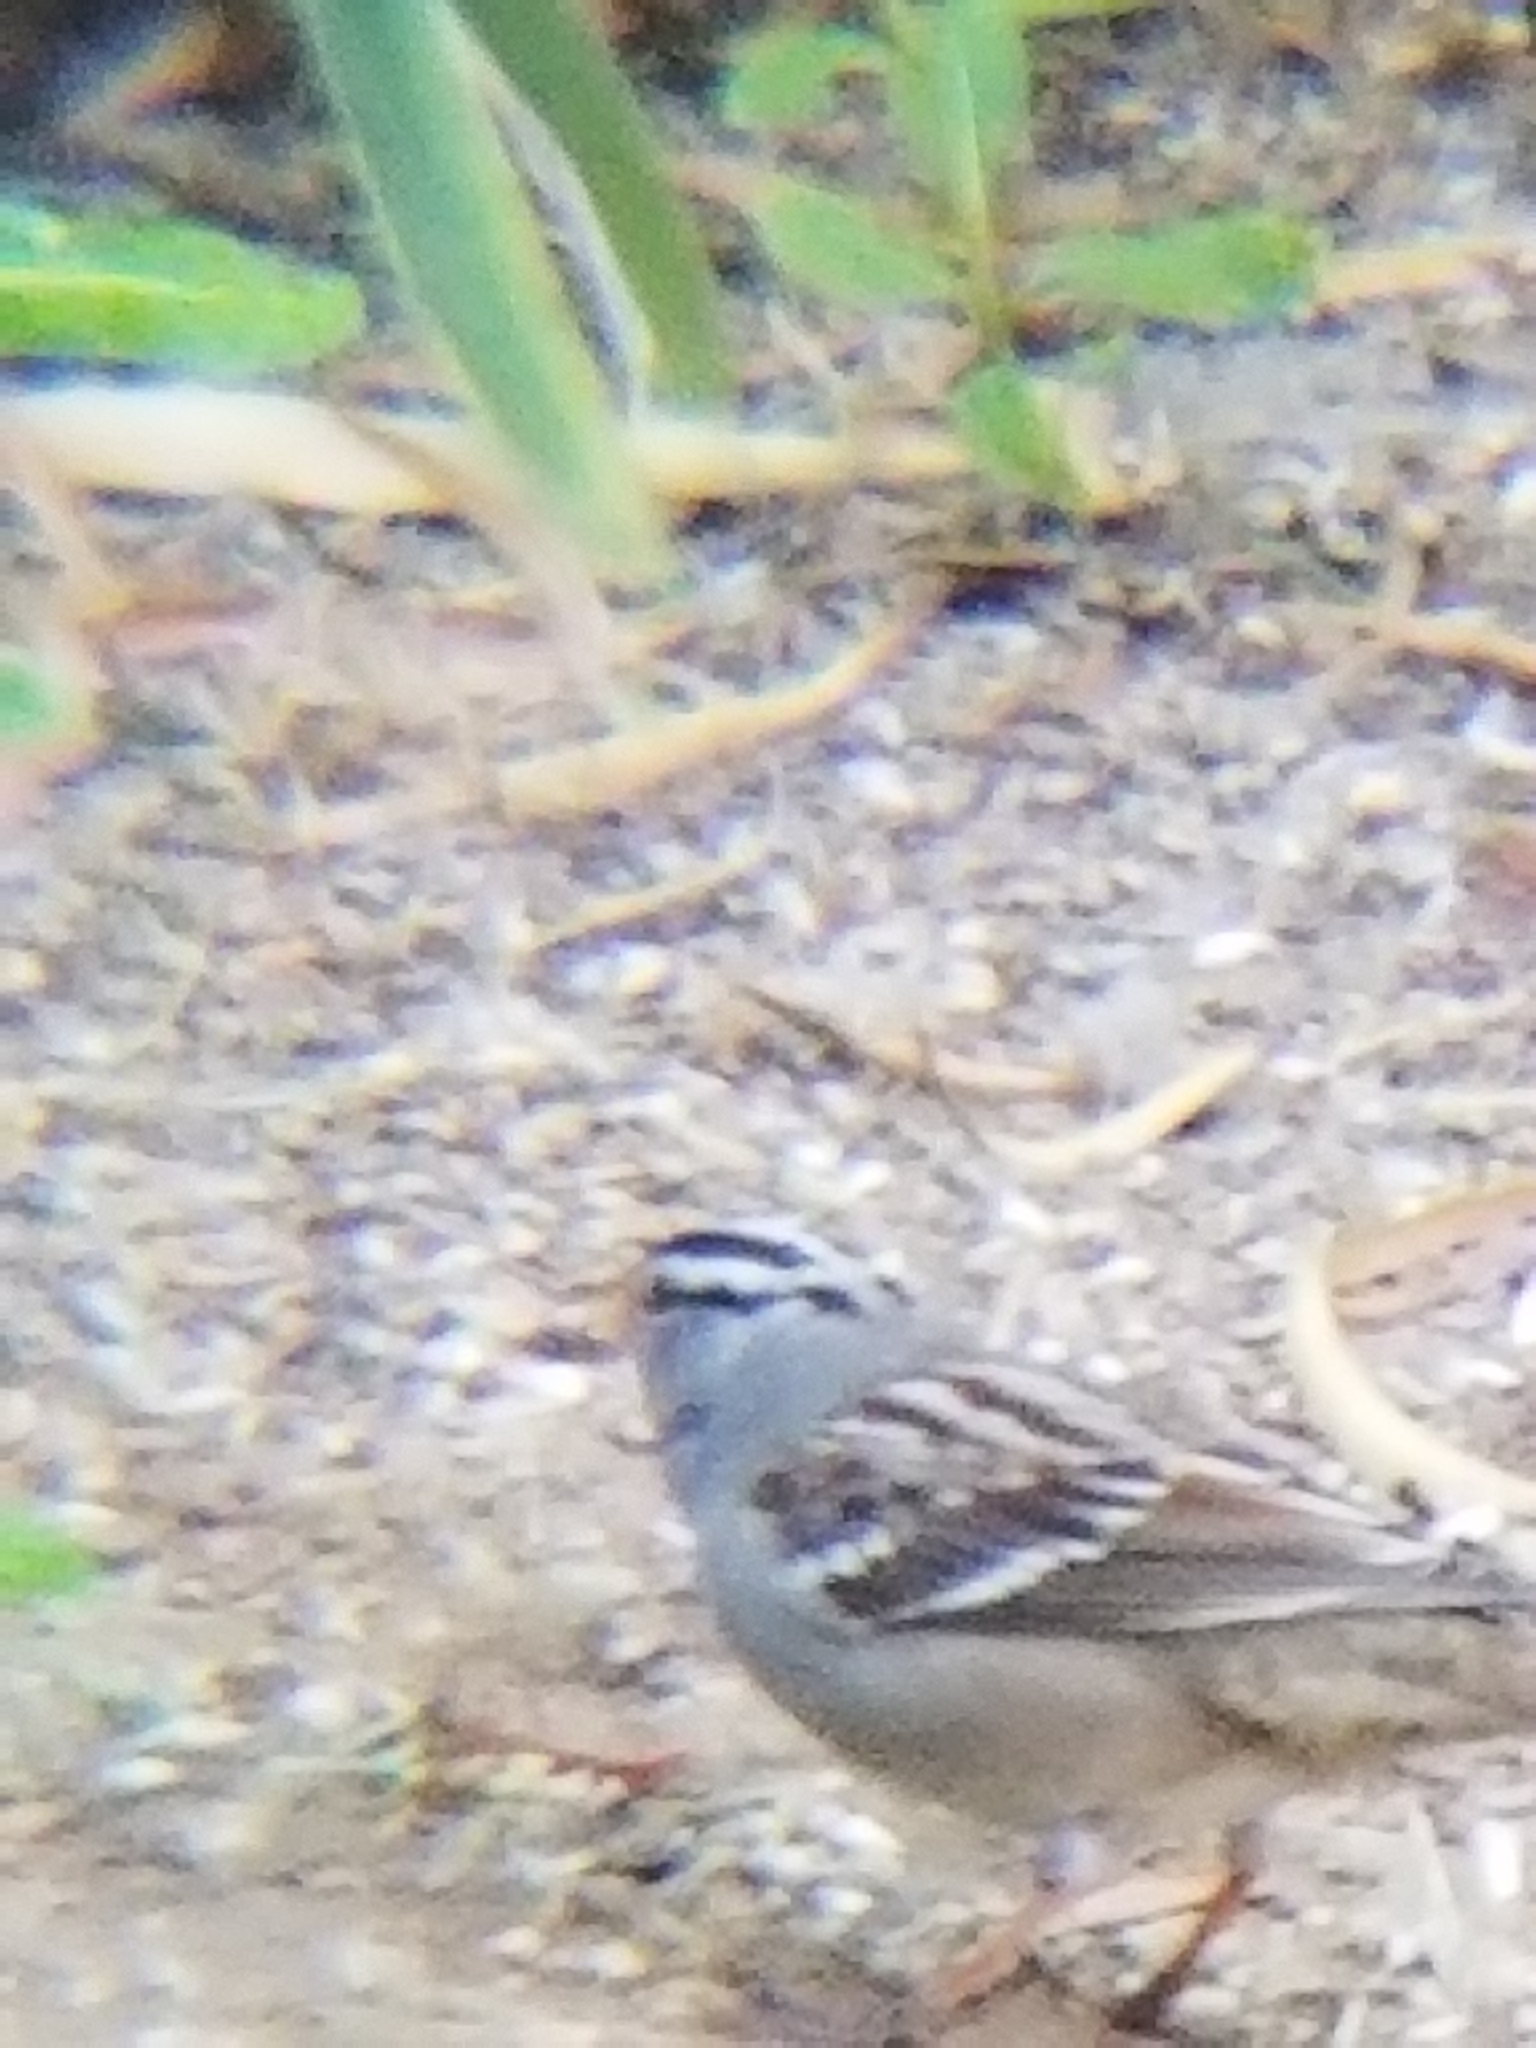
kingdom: Animalia
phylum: Chordata
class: Aves
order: Passeriformes
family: Passerellidae
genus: Zonotrichia
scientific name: Zonotrichia leucophrys
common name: White-crowned sparrow
